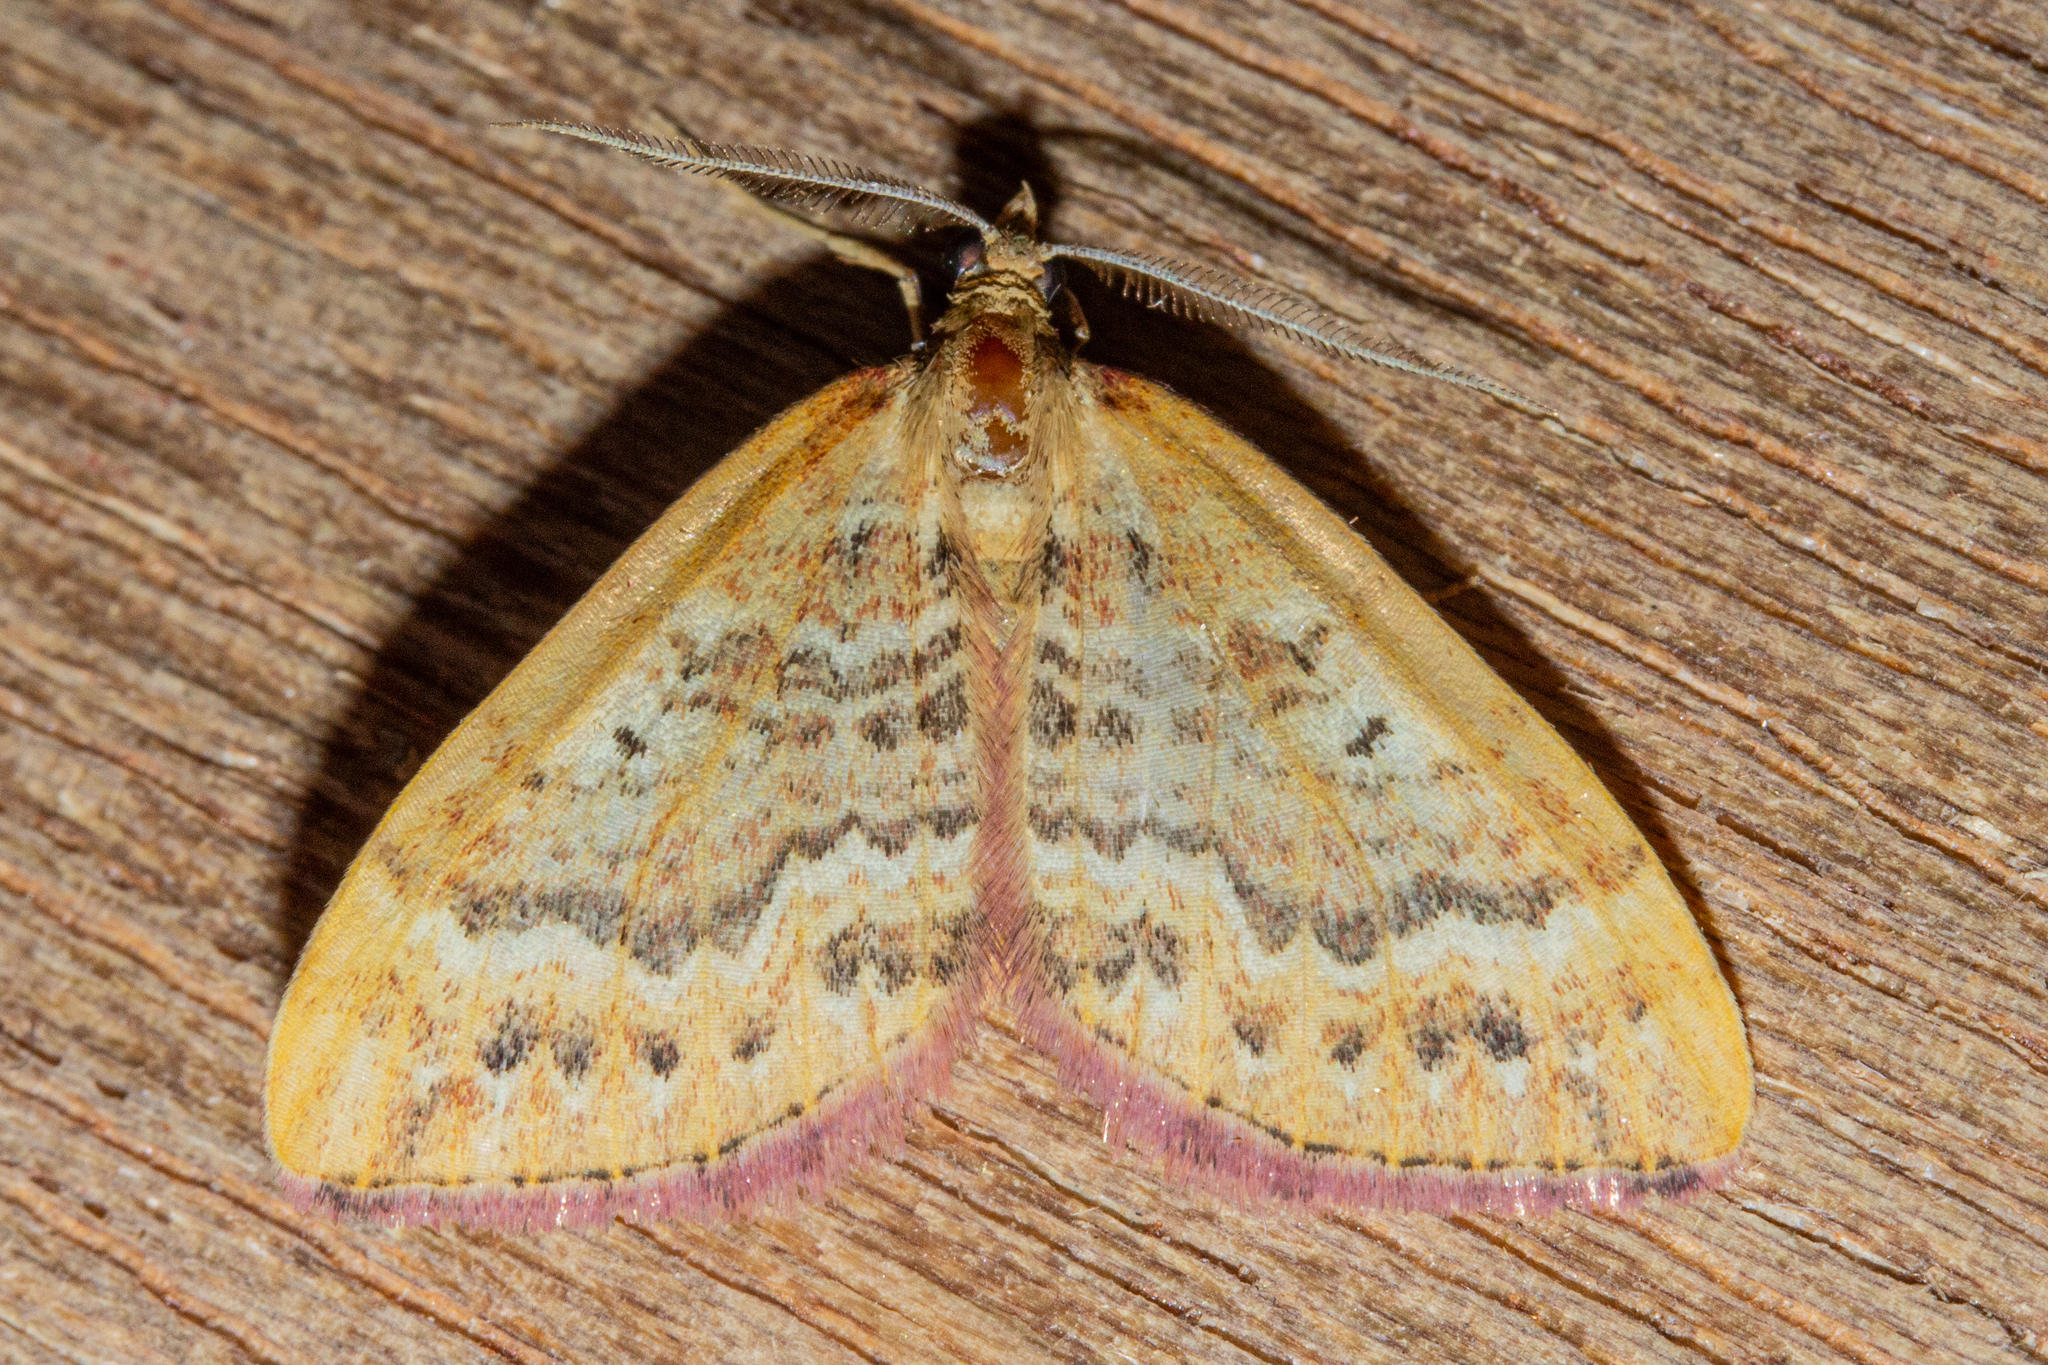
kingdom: Animalia
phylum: Arthropoda
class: Insecta
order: Lepidoptera
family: Geometridae
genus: Asaphodes
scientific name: Asaphodes helias
